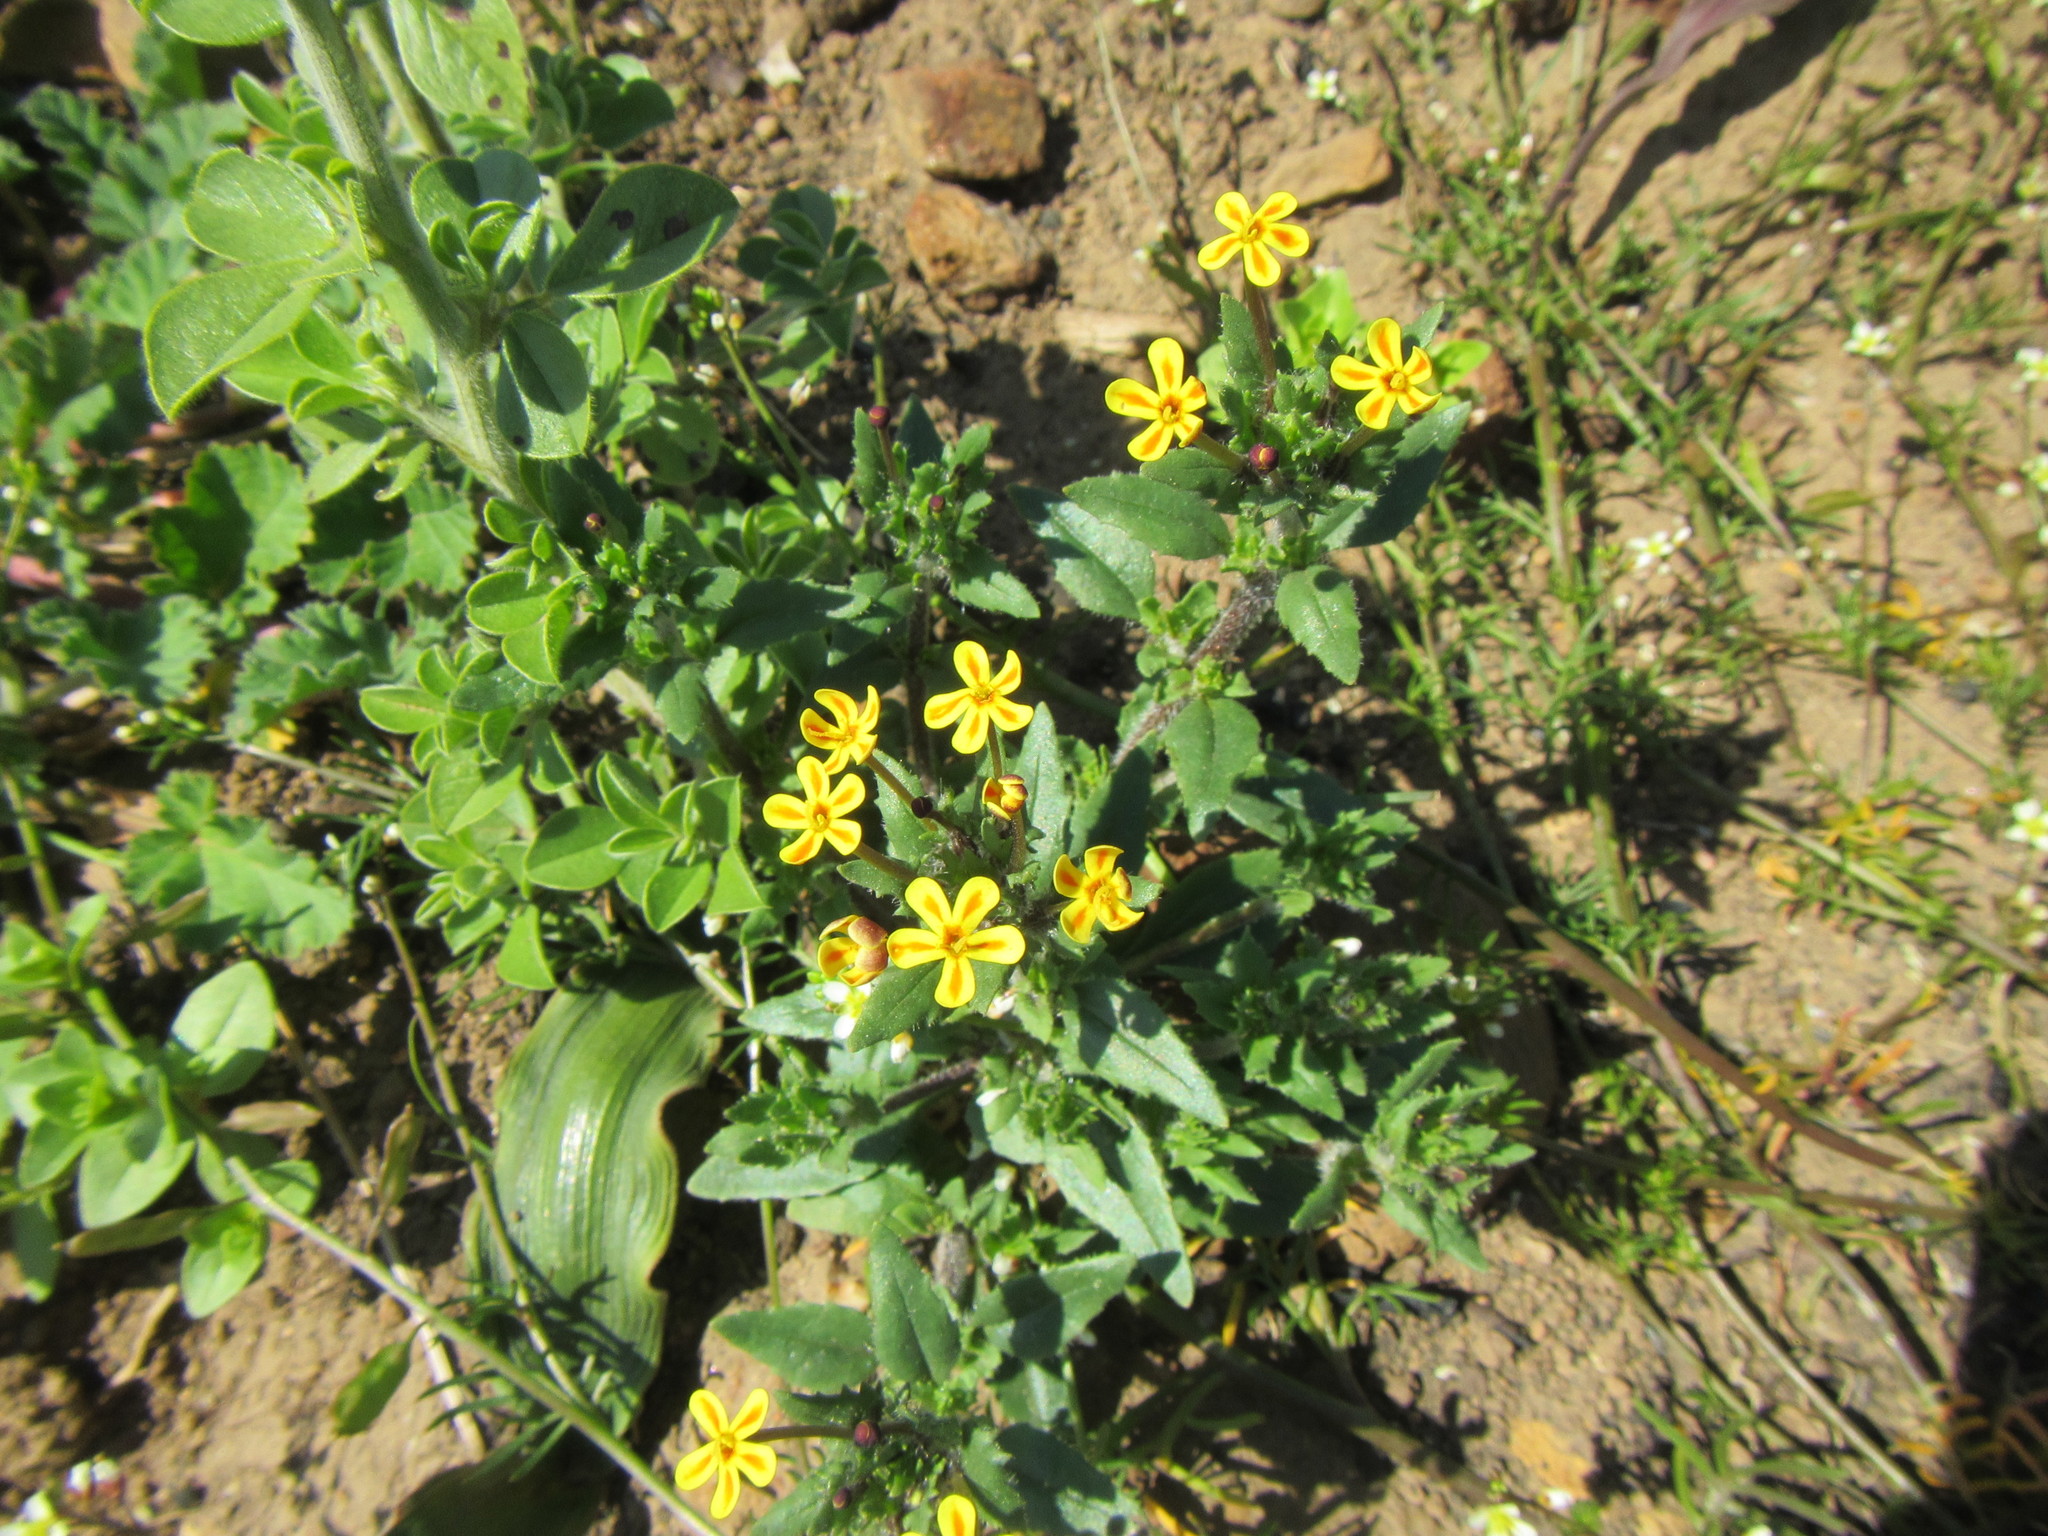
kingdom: Plantae
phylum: Tracheophyta
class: Magnoliopsida
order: Lamiales
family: Scrophulariaceae
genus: Zaluzianskya
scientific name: Zaluzianskya divaricata
